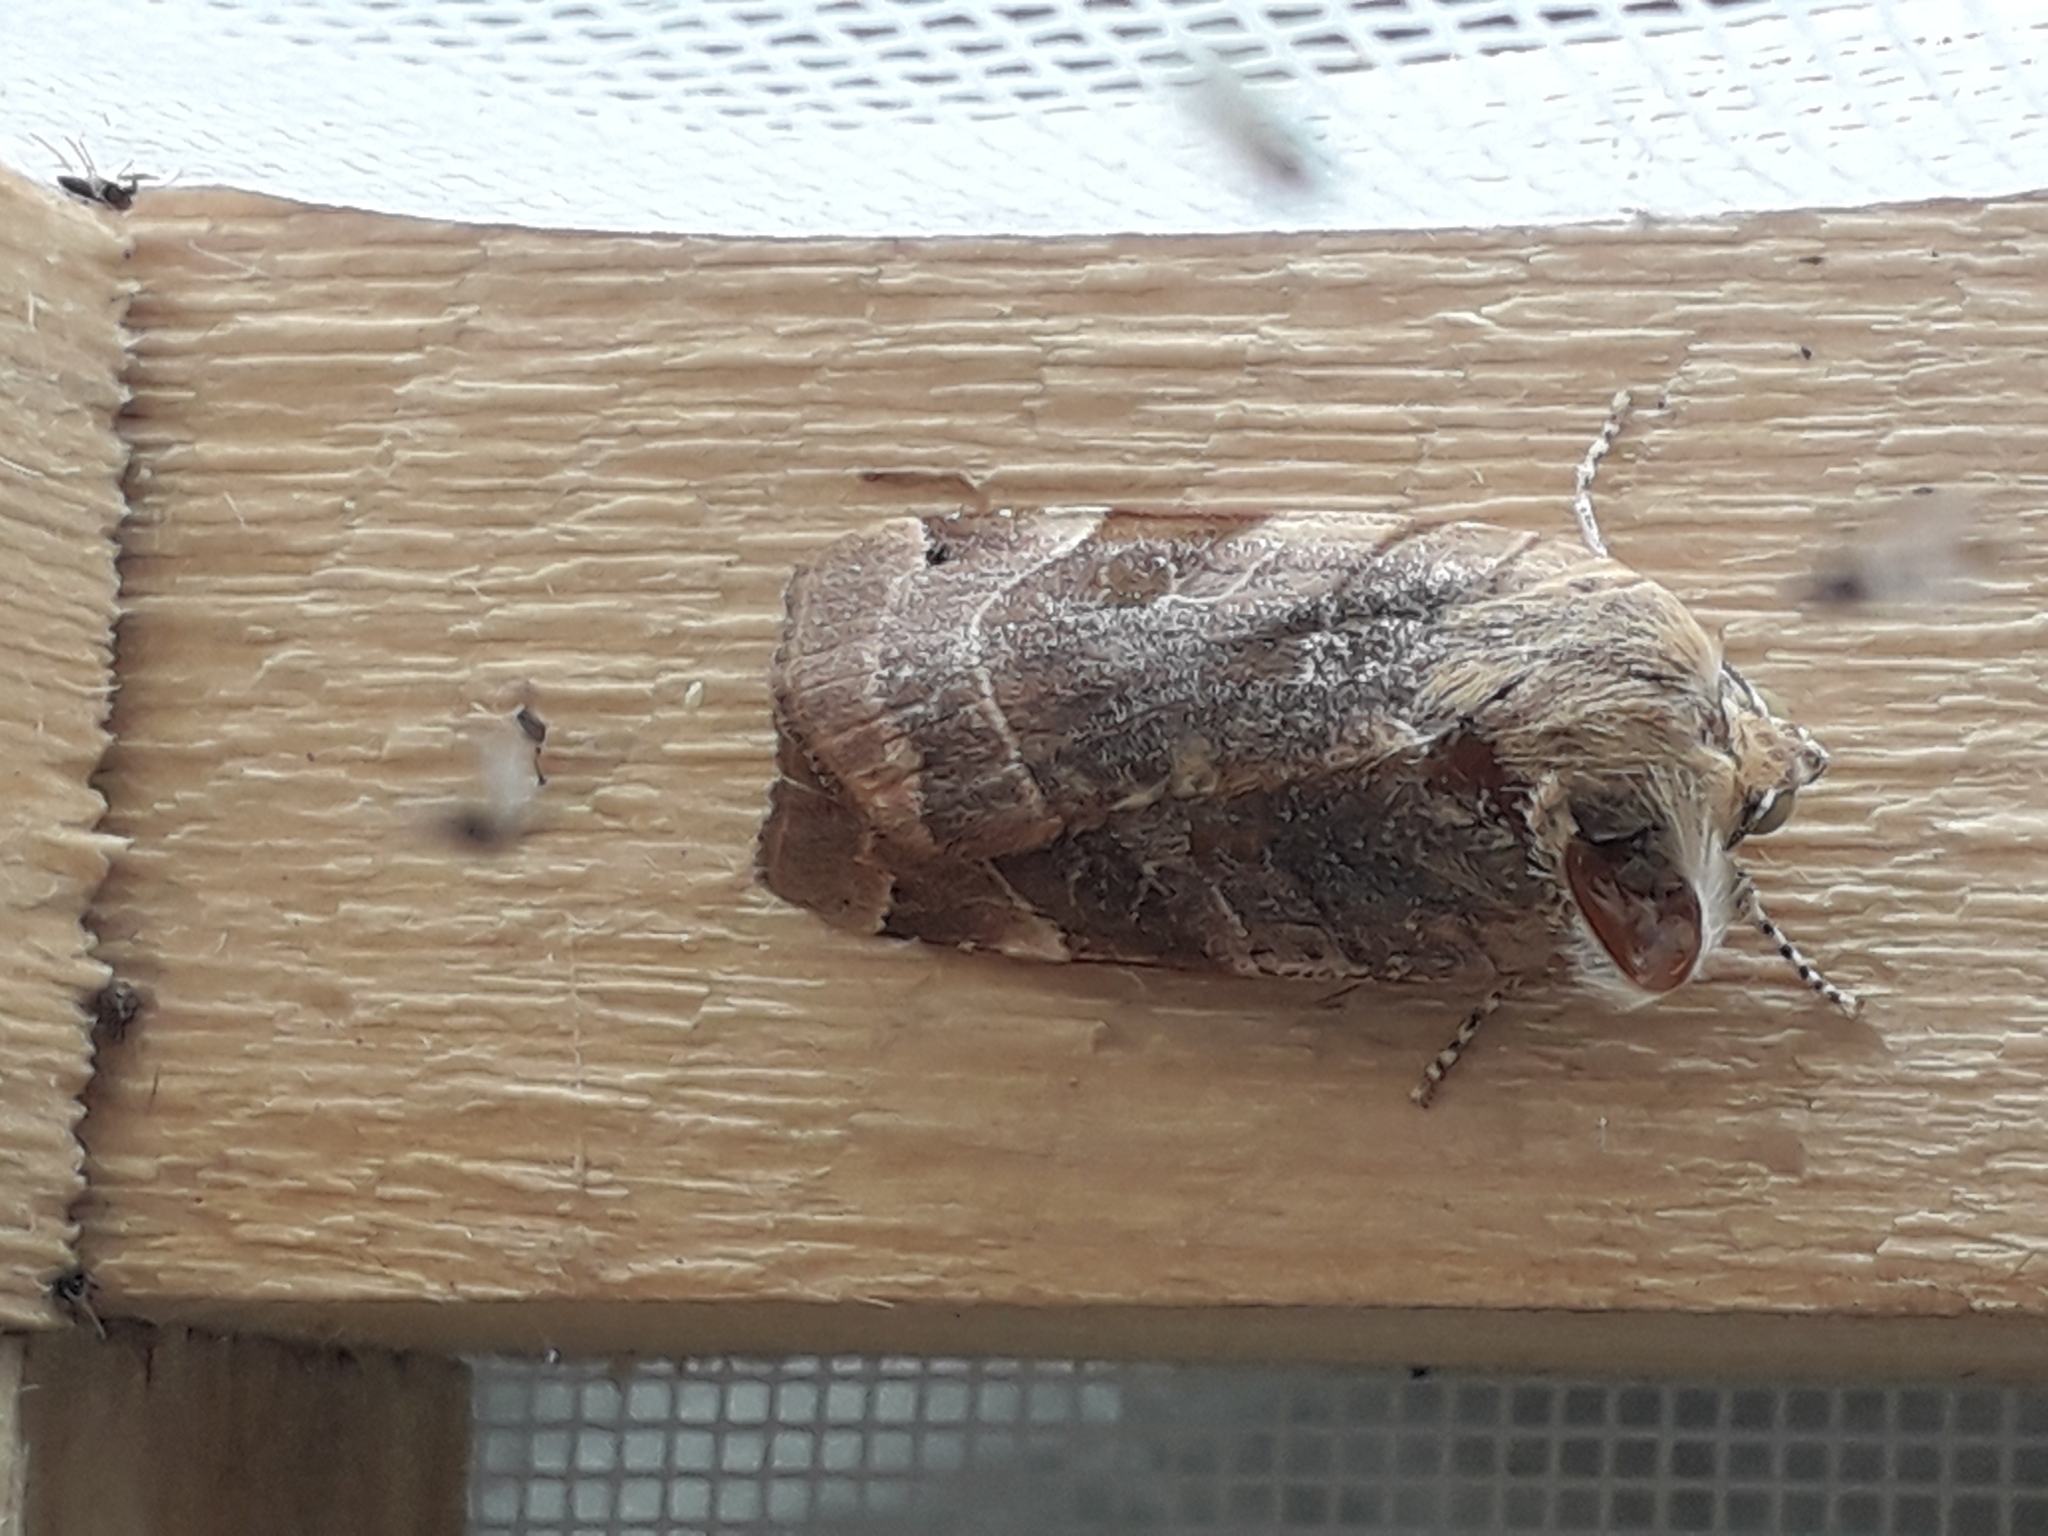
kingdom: Animalia
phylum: Arthropoda
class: Insecta
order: Lepidoptera
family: Noctuidae
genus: Noctua
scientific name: Noctua fimbriata
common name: Broad-bordered yellow underwing
